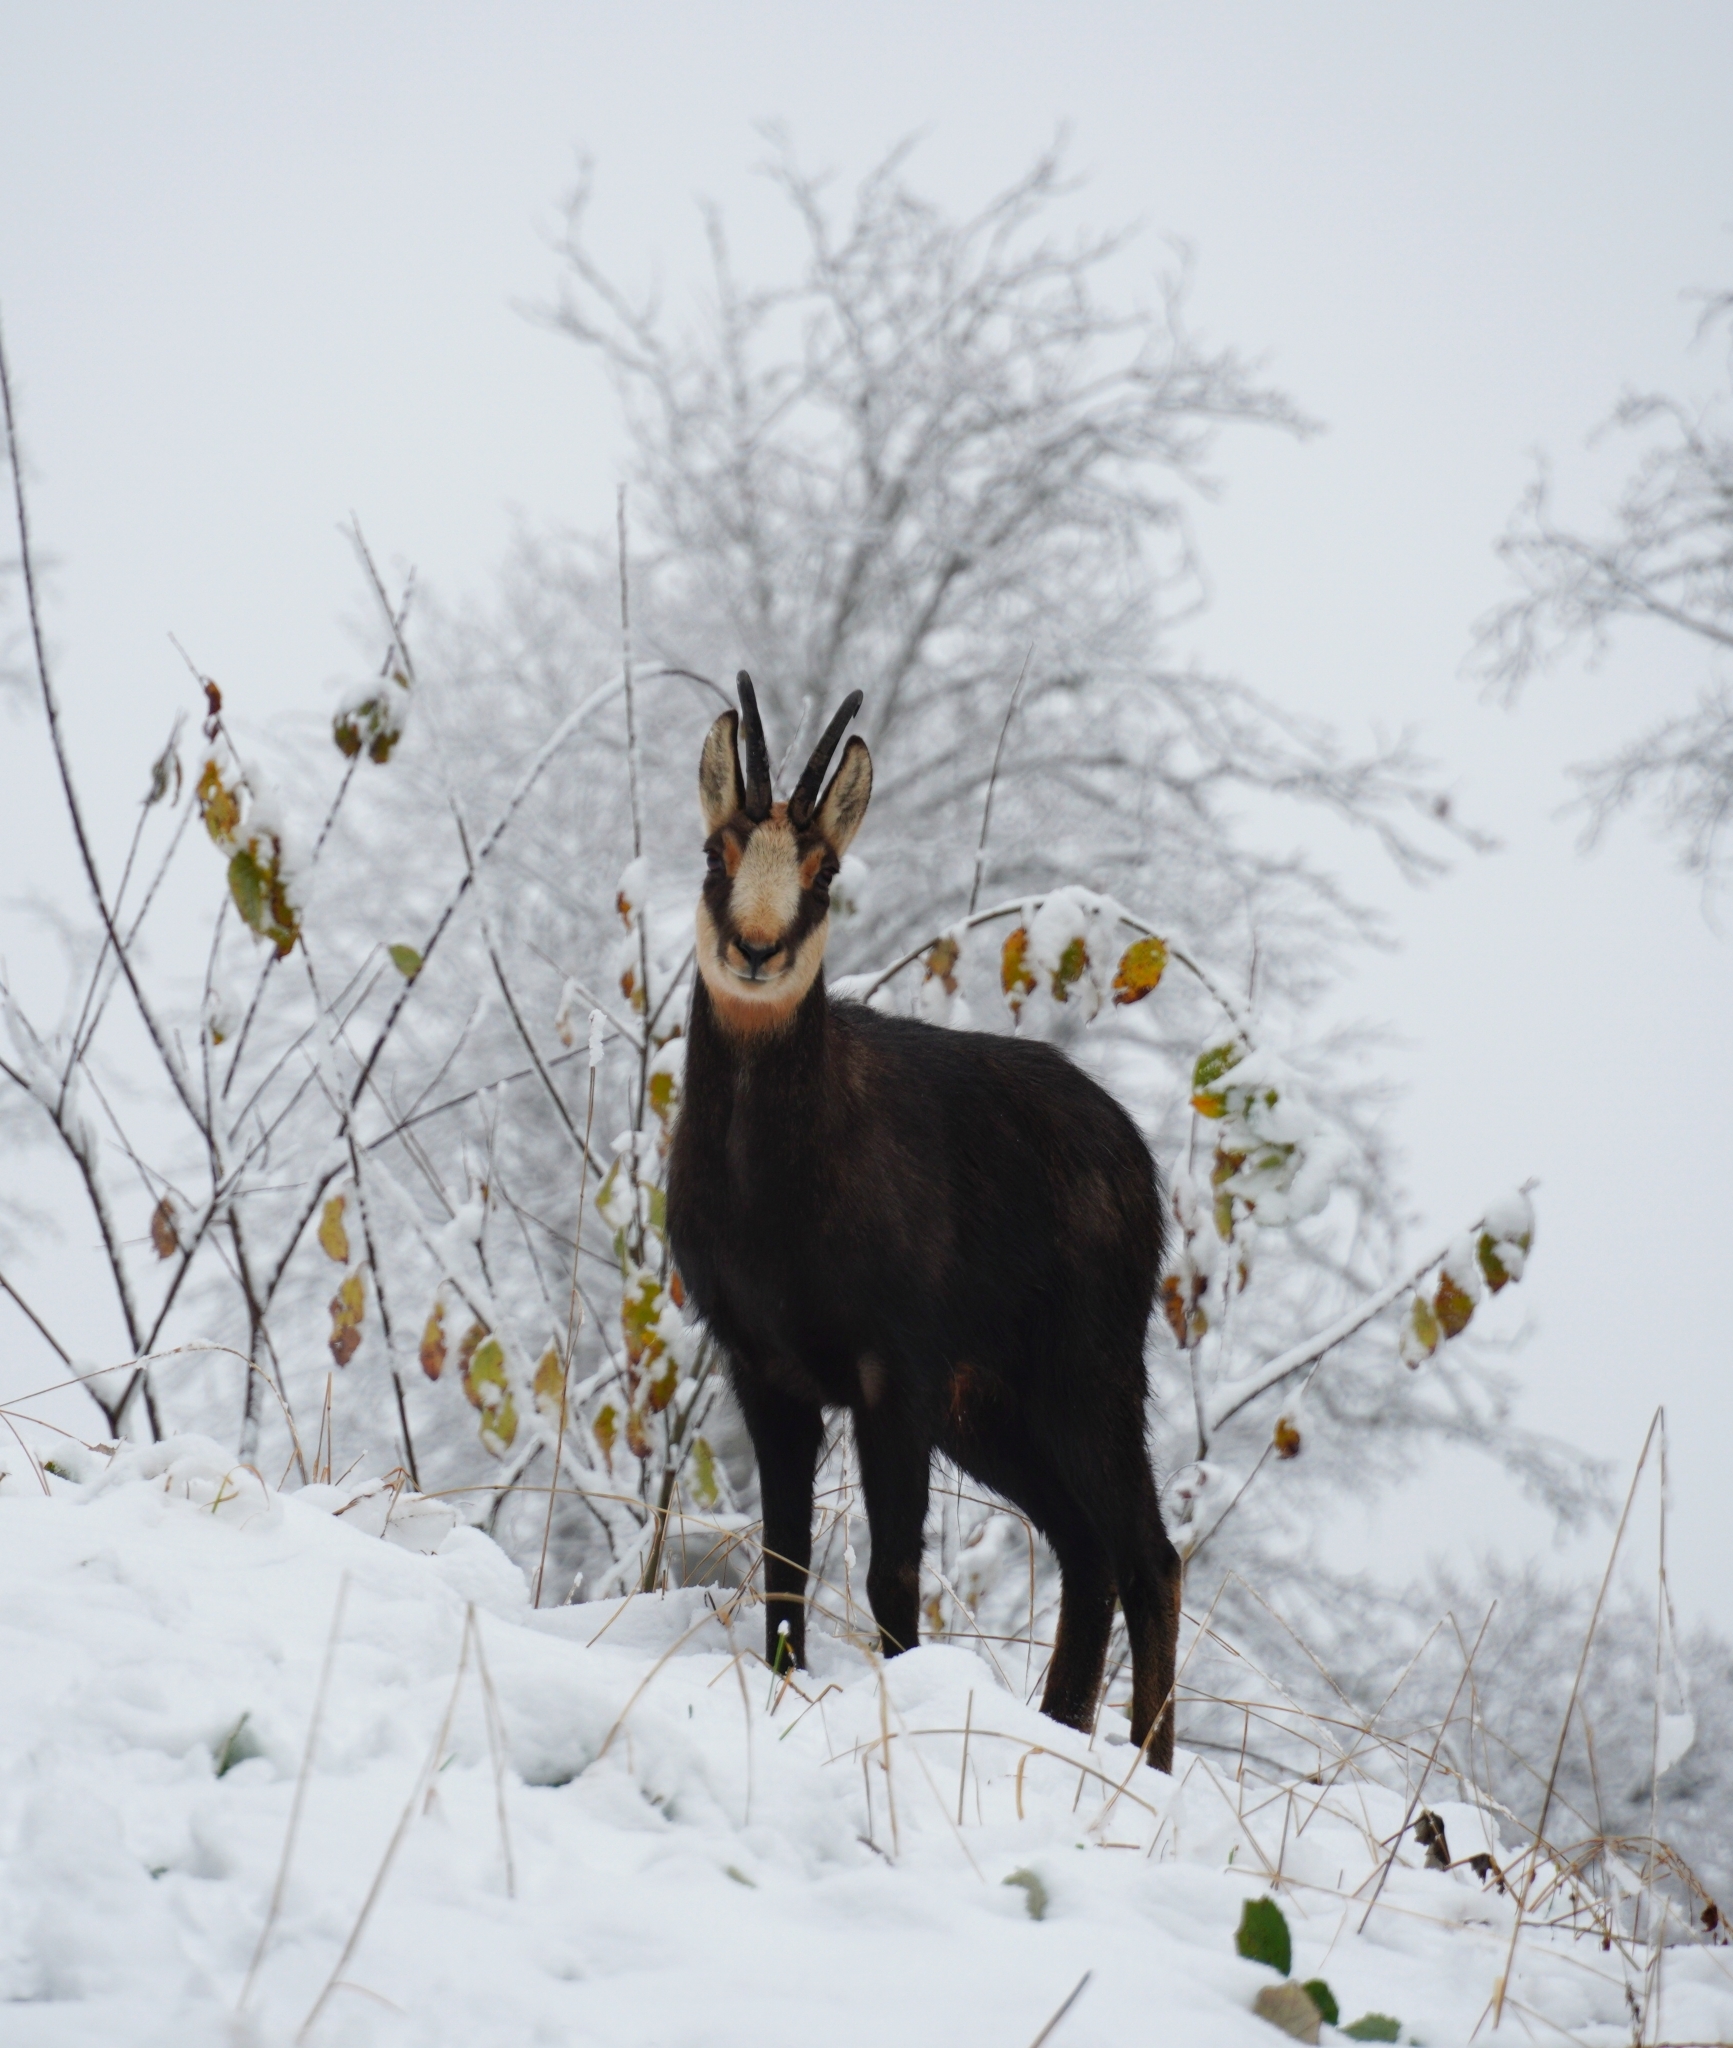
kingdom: Animalia
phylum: Chordata
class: Mammalia
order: Artiodactyla
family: Bovidae
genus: Rupicapra
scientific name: Rupicapra rupicapra
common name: Chamois
